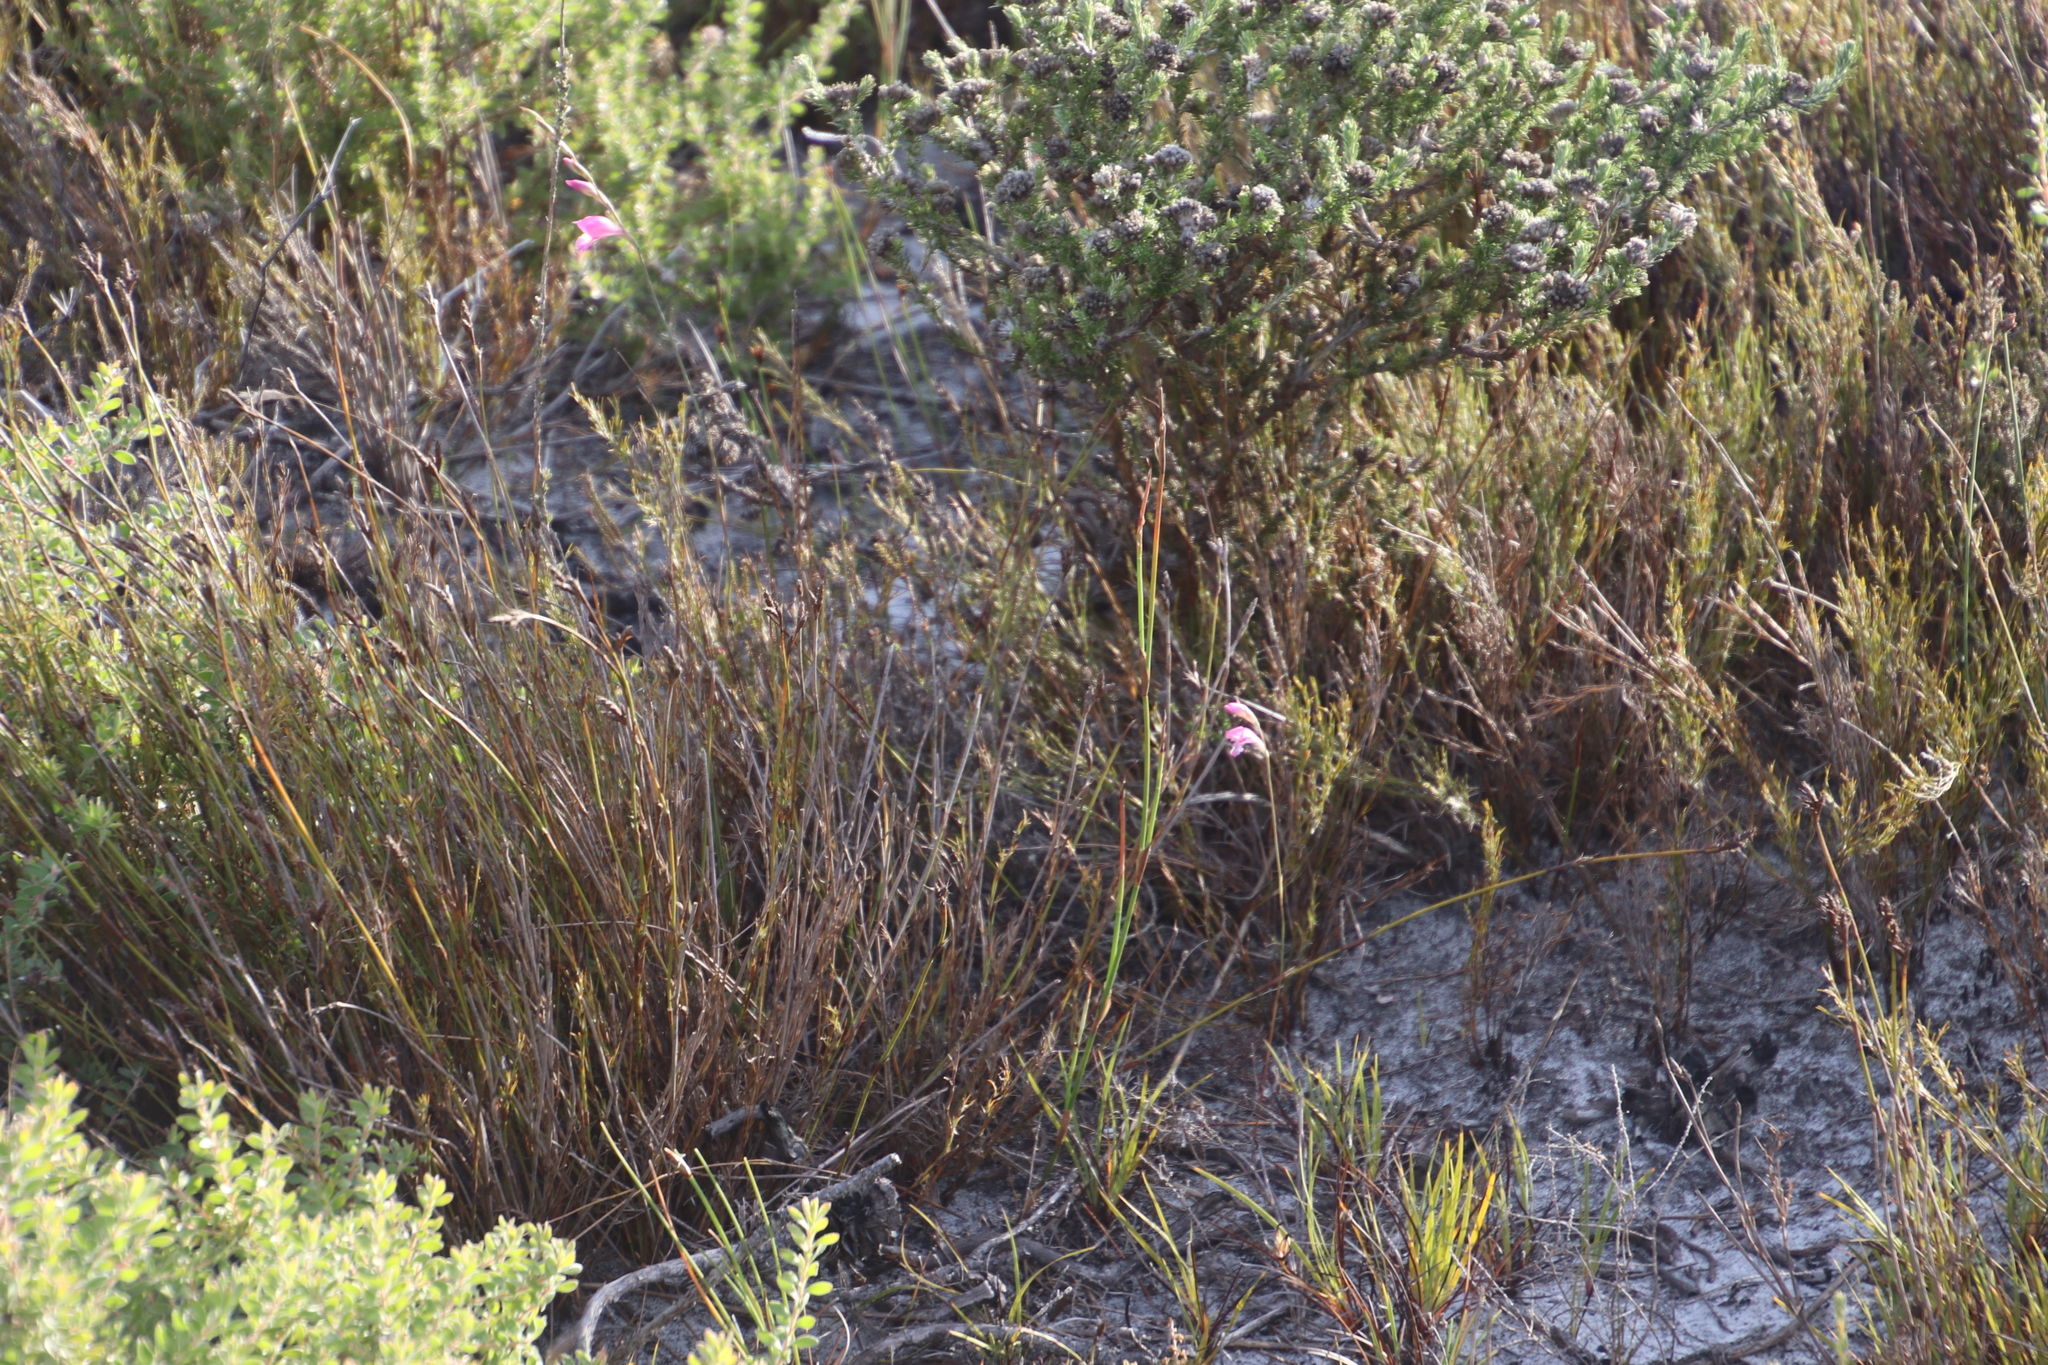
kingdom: Plantae
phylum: Tracheophyta
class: Liliopsida
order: Asparagales
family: Iridaceae
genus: Gladiolus
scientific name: Gladiolus brevifolius
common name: March pypie
